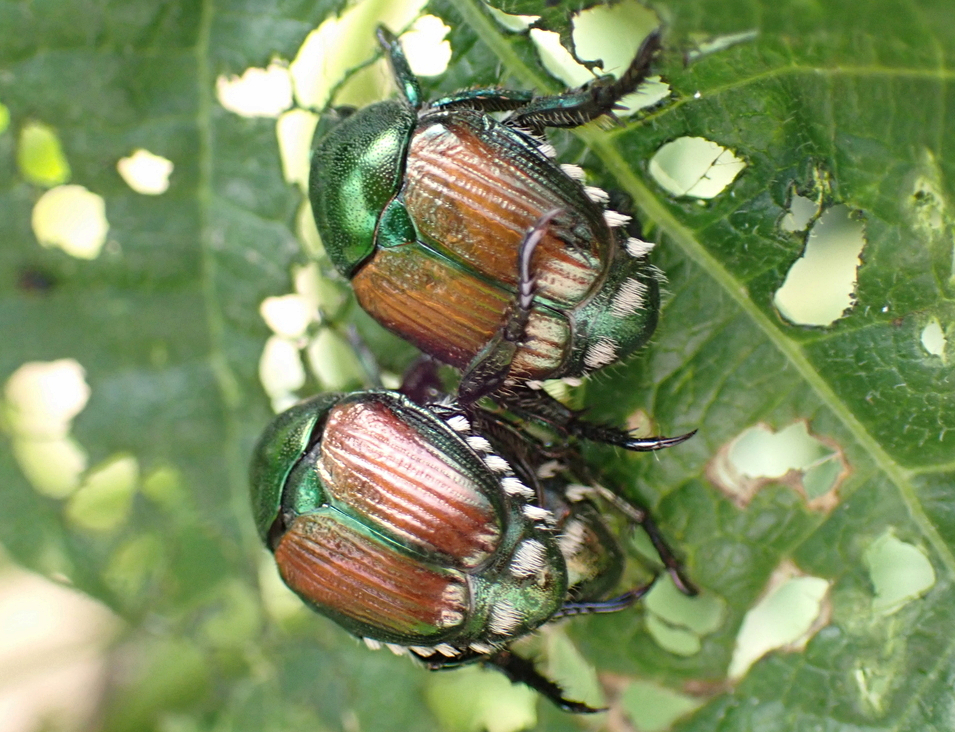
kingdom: Animalia
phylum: Arthropoda
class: Insecta
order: Coleoptera
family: Scarabaeidae
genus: Popillia
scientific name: Popillia japonica
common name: Japanese beetle
